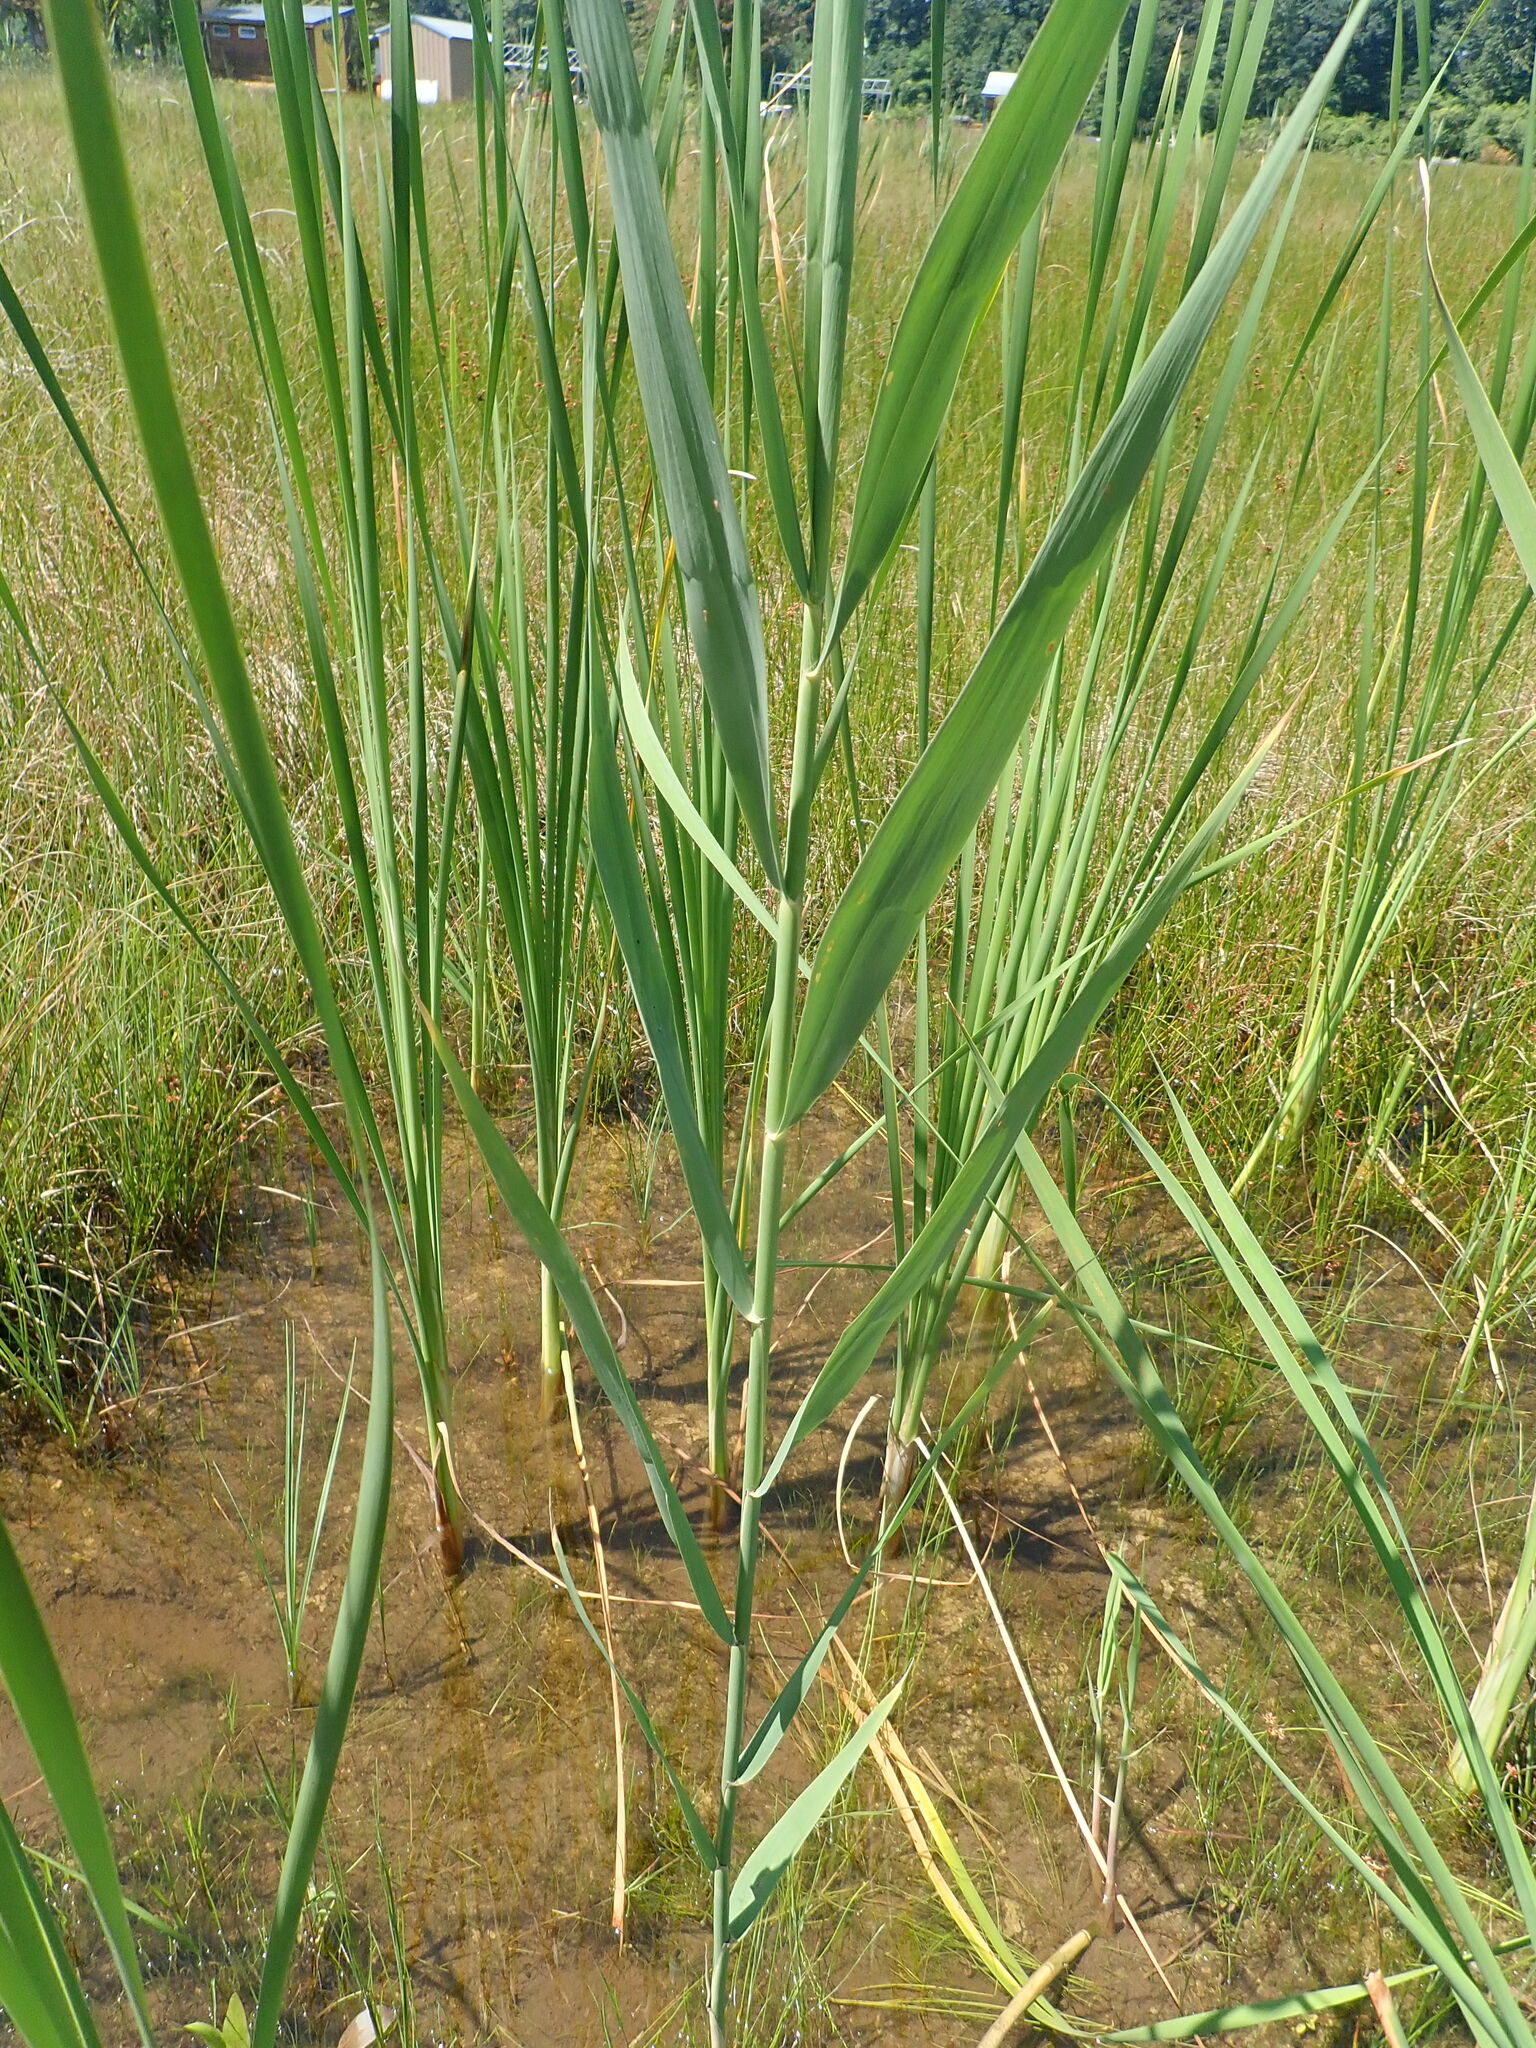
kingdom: Plantae
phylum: Tracheophyta
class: Liliopsida
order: Poales
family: Poaceae
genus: Phragmites
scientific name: Phragmites australis
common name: Common reed
